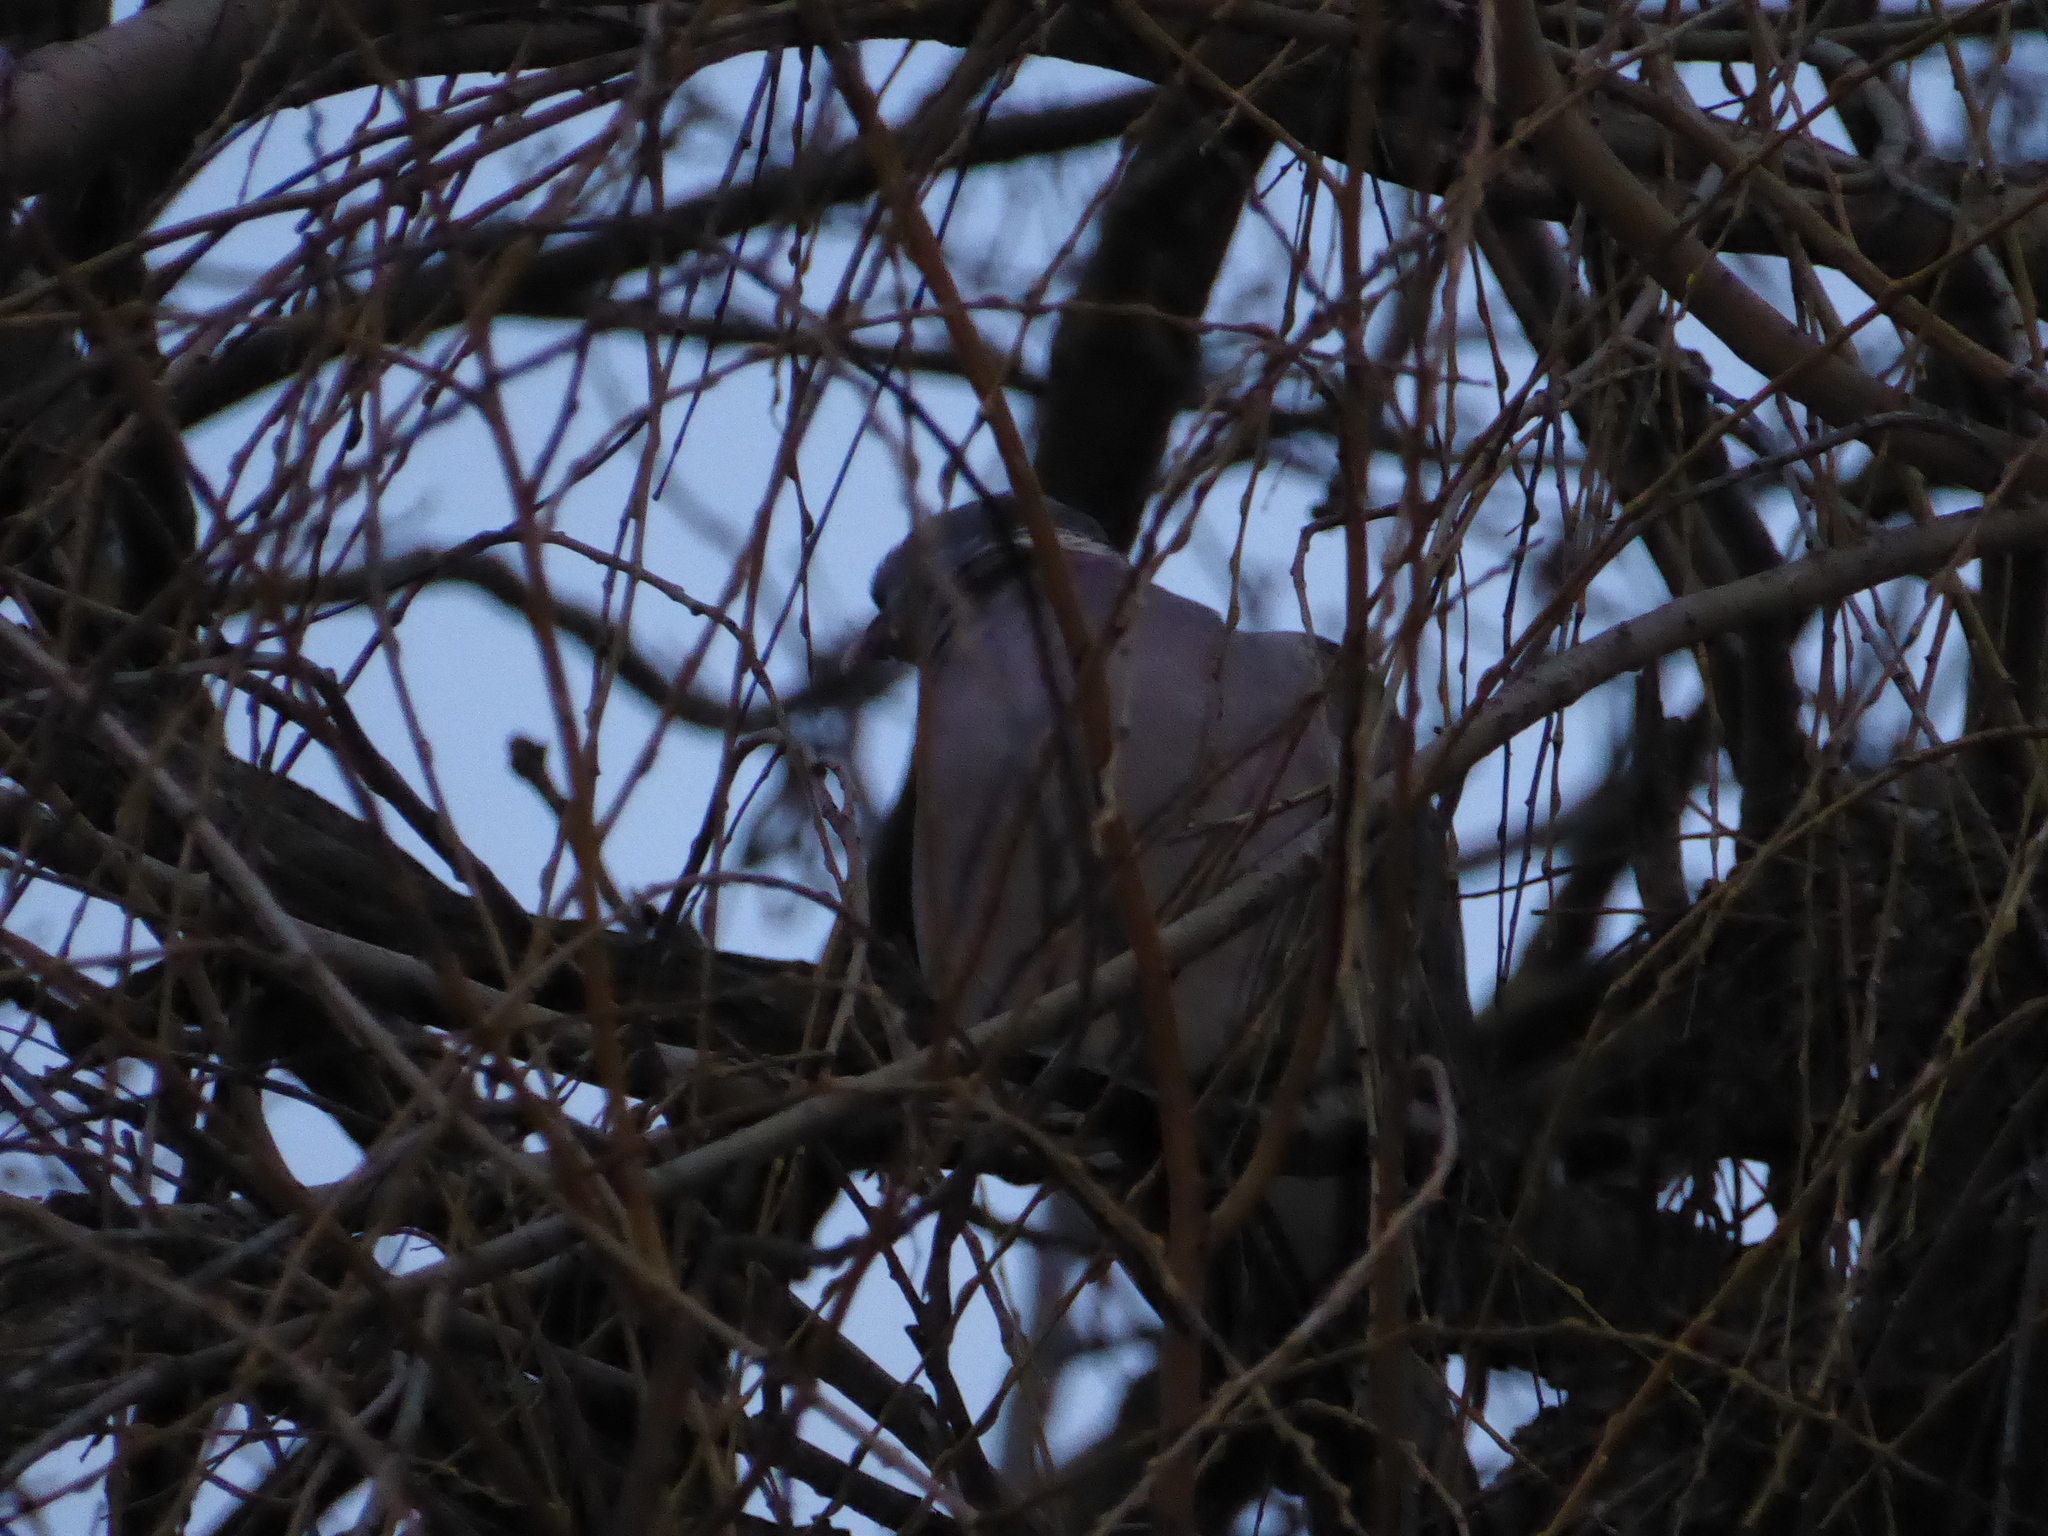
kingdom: Animalia
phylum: Chordata
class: Aves
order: Columbiformes
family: Columbidae
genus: Columba
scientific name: Columba palumbus
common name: Common wood pigeon
